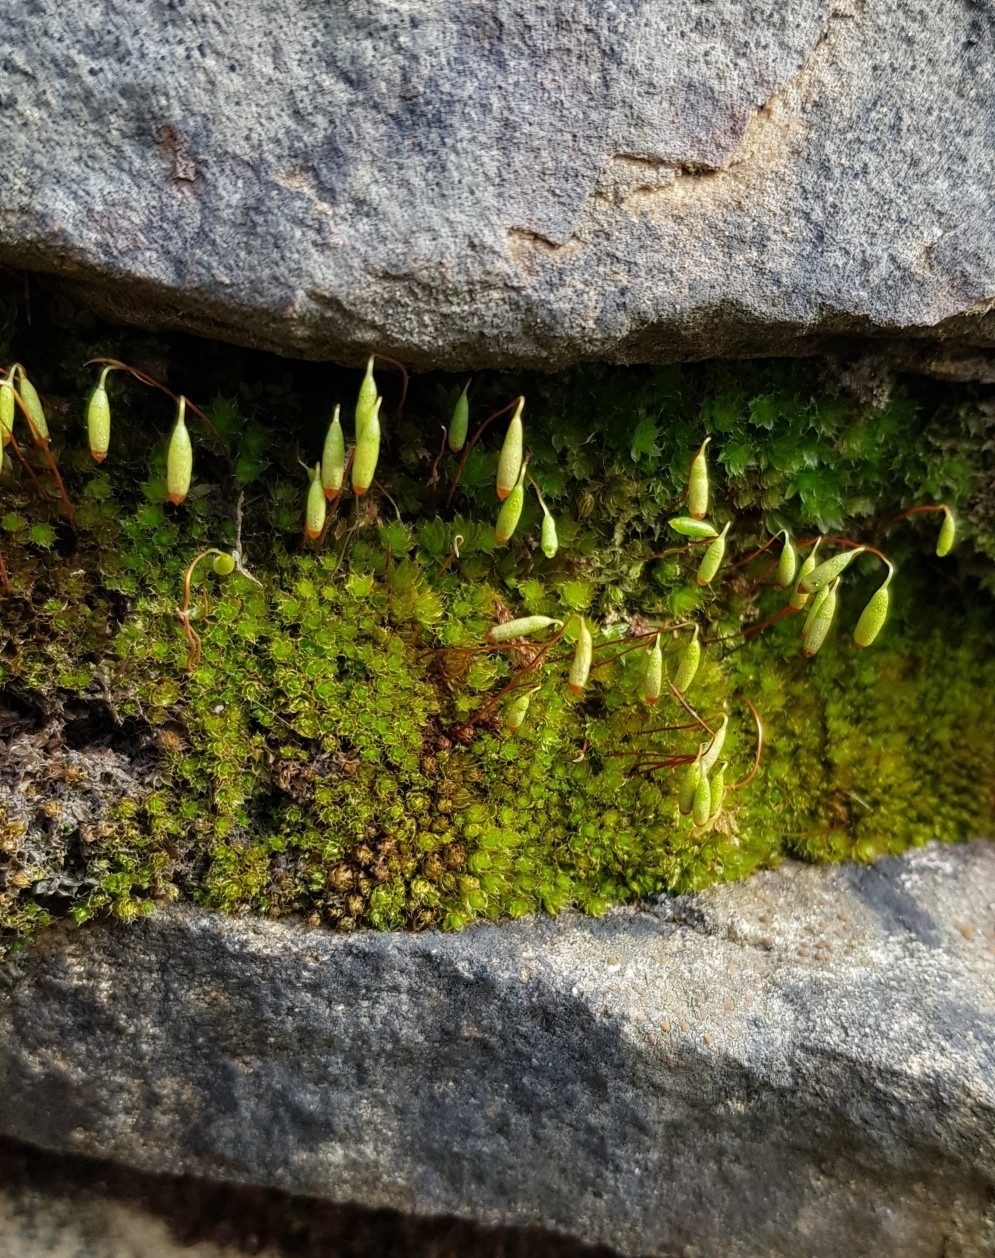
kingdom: Plantae
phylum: Bryophyta
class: Bryopsida
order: Bryales
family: Bryaceae
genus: Rosulabryum
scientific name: Rosulabryum capillare
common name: Capillary thread-moss
